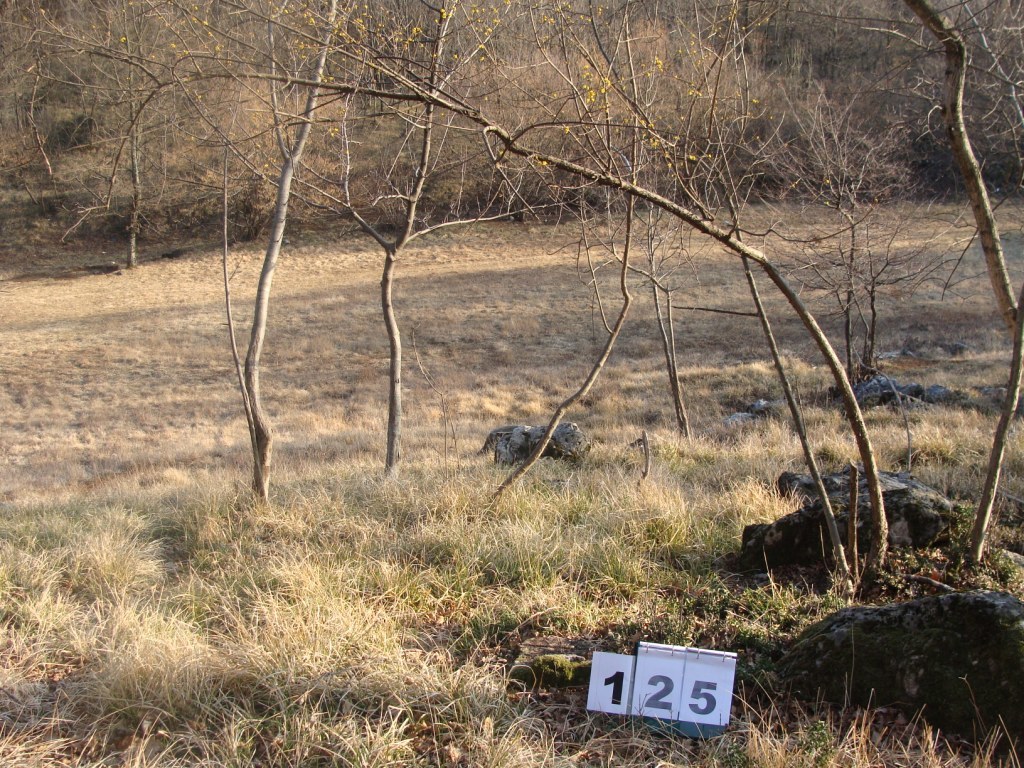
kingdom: Plantae
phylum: Tracheophyta
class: Magnoliopsida
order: Cornales
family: Cornaceae
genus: Cornus
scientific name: Cornus mas
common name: Cornelian-cherry
